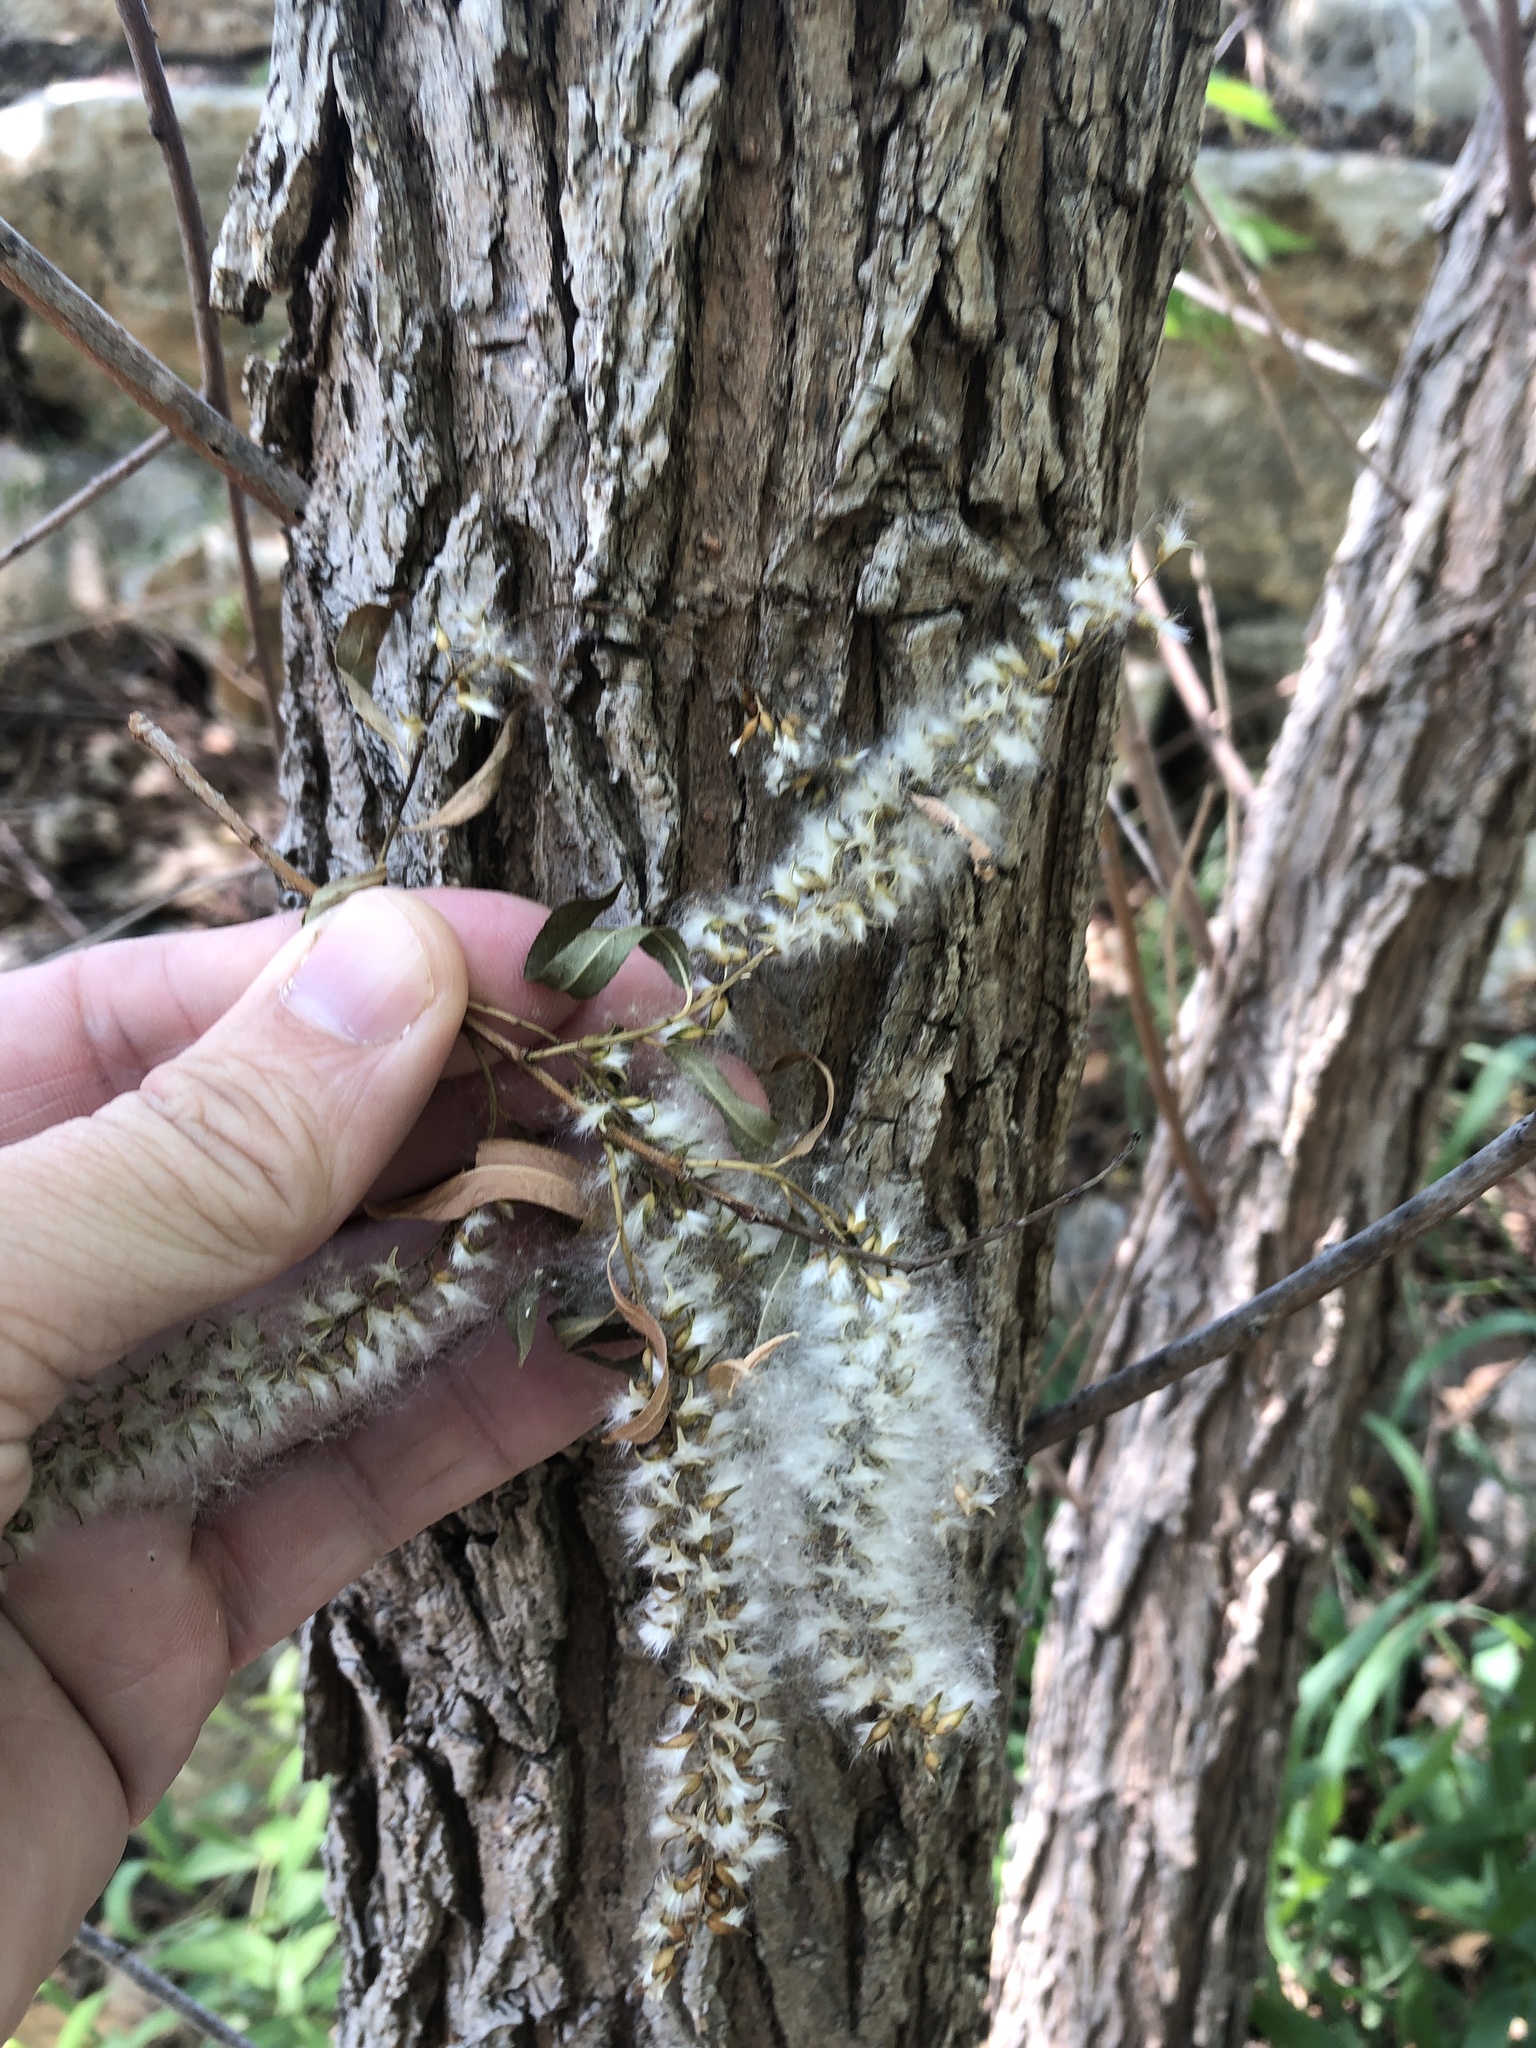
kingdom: Plantae
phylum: Tracheophyta
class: Magnoliopsida
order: Malpighiales
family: Salicaceae
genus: Salix
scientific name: Salix nigra
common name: Black willow
